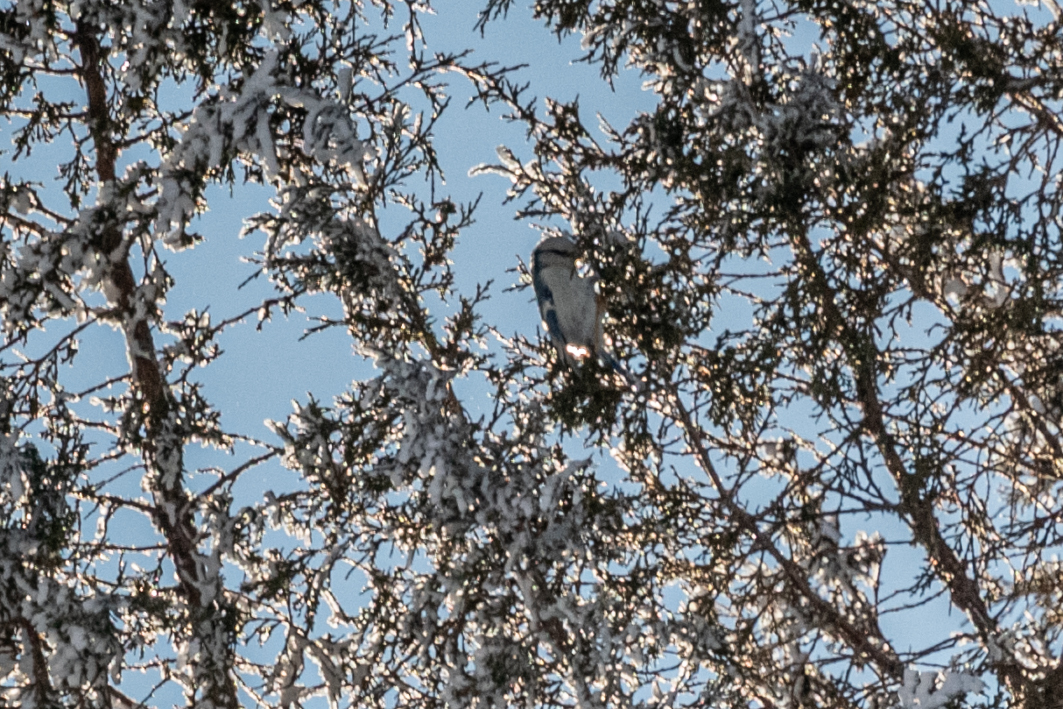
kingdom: Animalia
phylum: Chordata
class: Aves
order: Passeriformes
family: Paridae
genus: Cyanistes
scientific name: Cyanistes cyanus
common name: Azure tit
